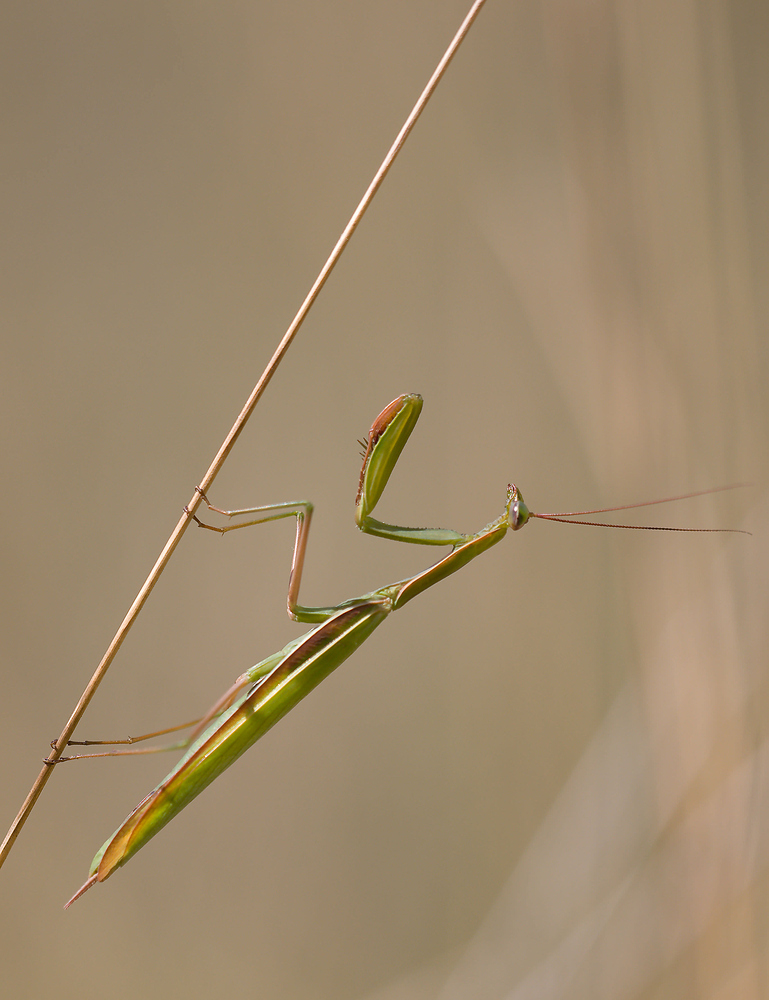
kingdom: Animalia
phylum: Arthropoda
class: Insecta
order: Mantodea
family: Mantidae
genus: Mantis
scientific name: Mantis religiosa
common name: Praying mantis
